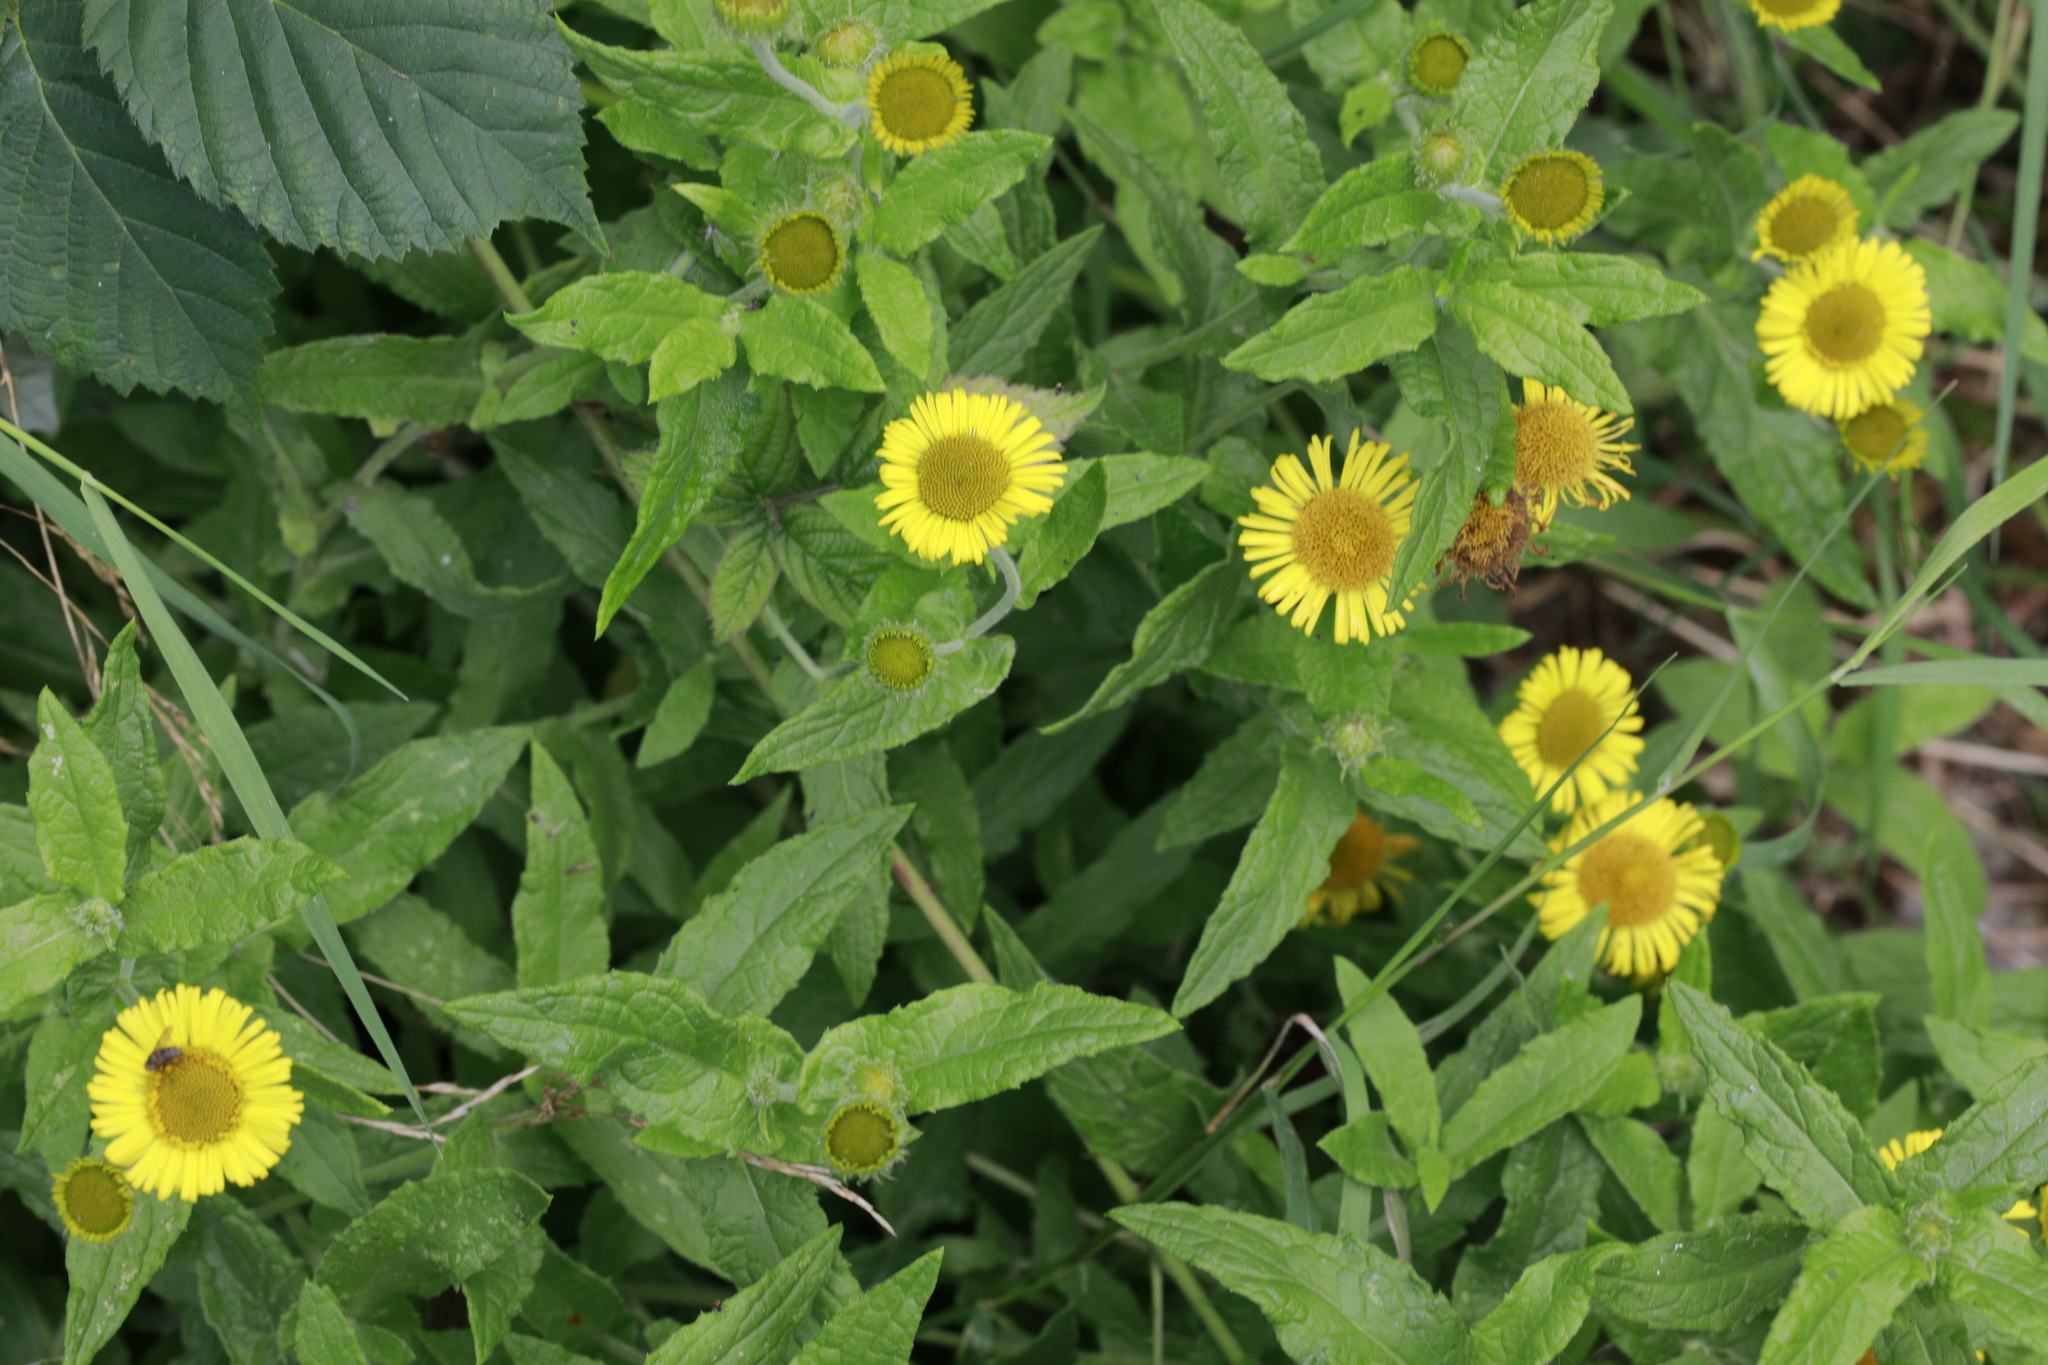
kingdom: Plantae
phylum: Tracheophyta
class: Magnoliopsida
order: Asterales
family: Asteraceae
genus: Pulicaria
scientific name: Pulicaria dysenterica
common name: Common fleabane
